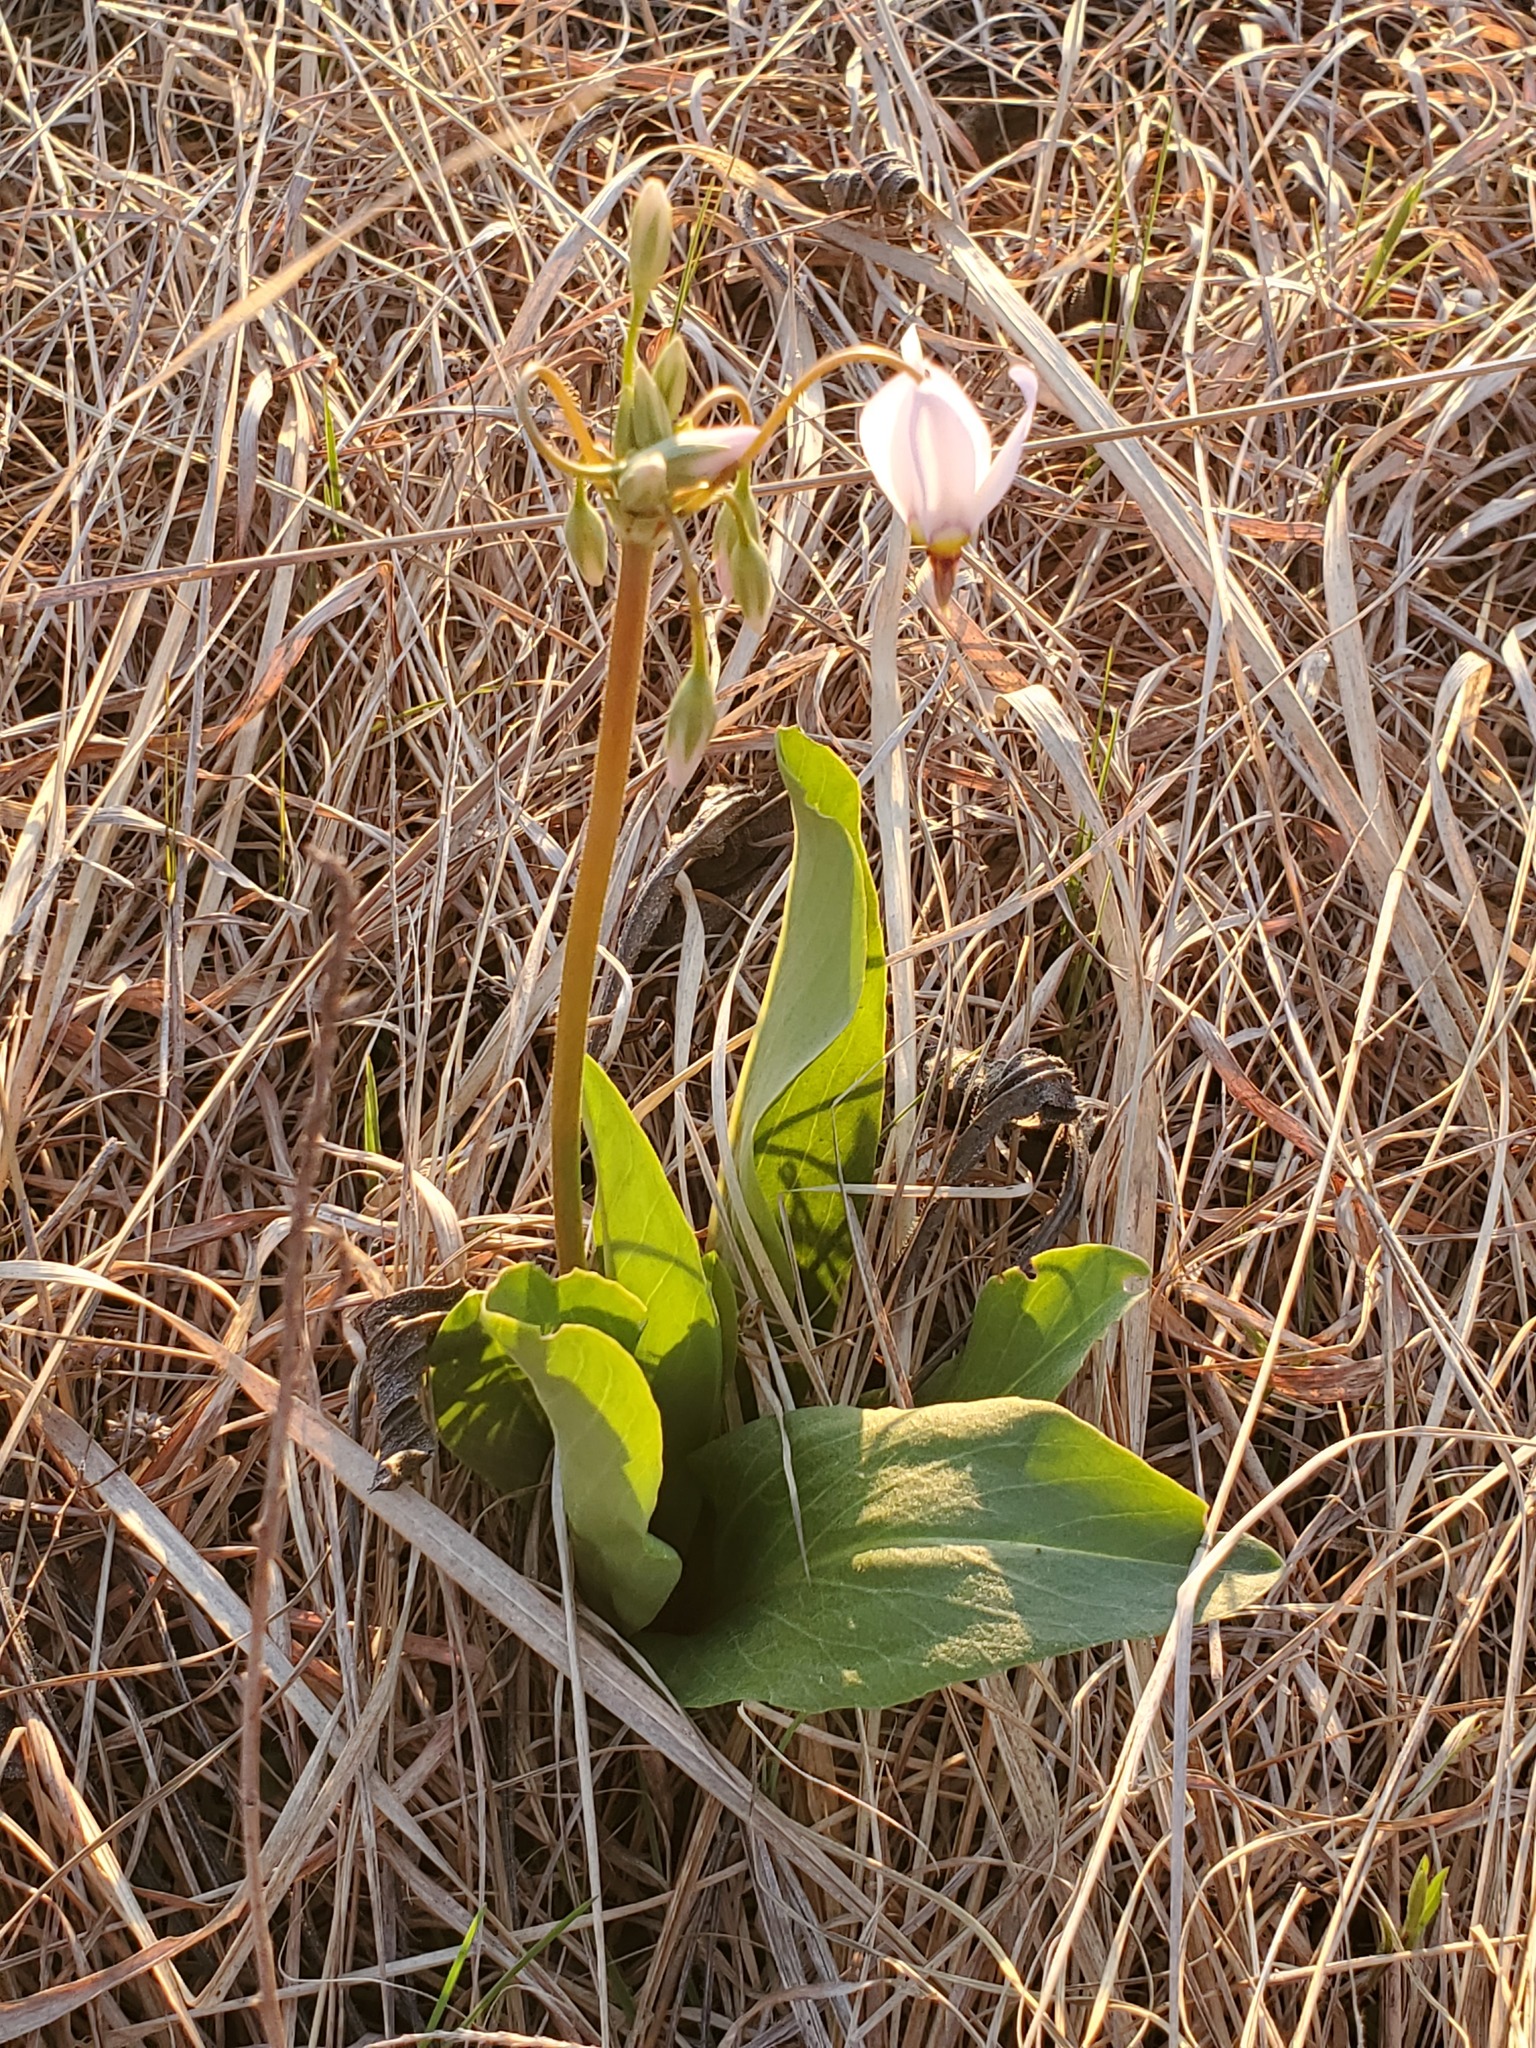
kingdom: Plantae
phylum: Tracheophyta
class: Magnoliopsida
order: Ericales
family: Primulaceae
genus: Dodecatheon
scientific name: Dodecatheon meadia
